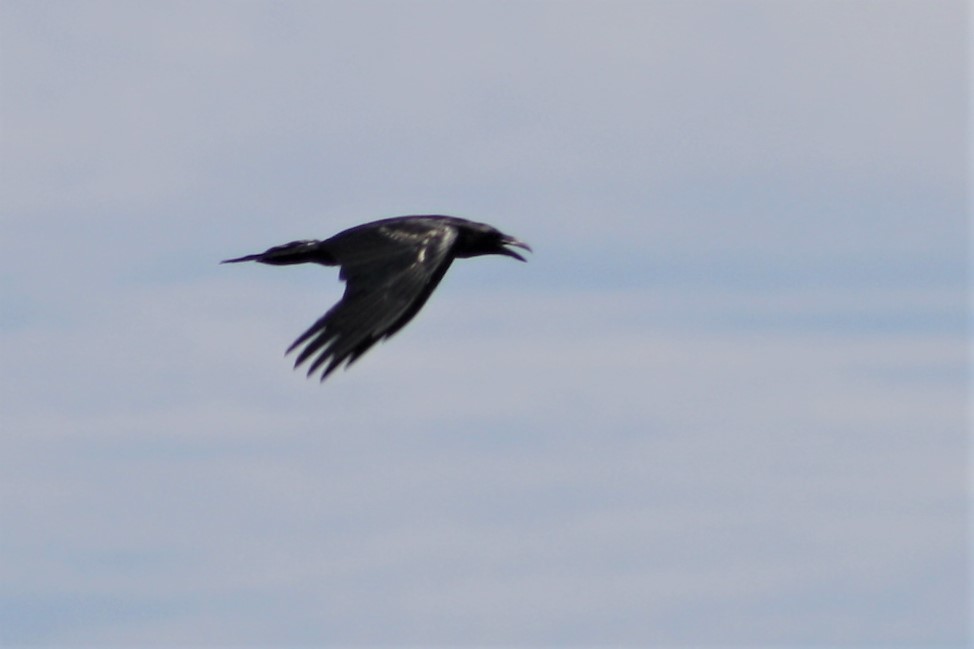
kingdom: Animalia
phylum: Chordata
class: Aves
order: Passeriformes
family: Corvidae
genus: Corvus
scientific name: Corvus corax
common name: Common raven
